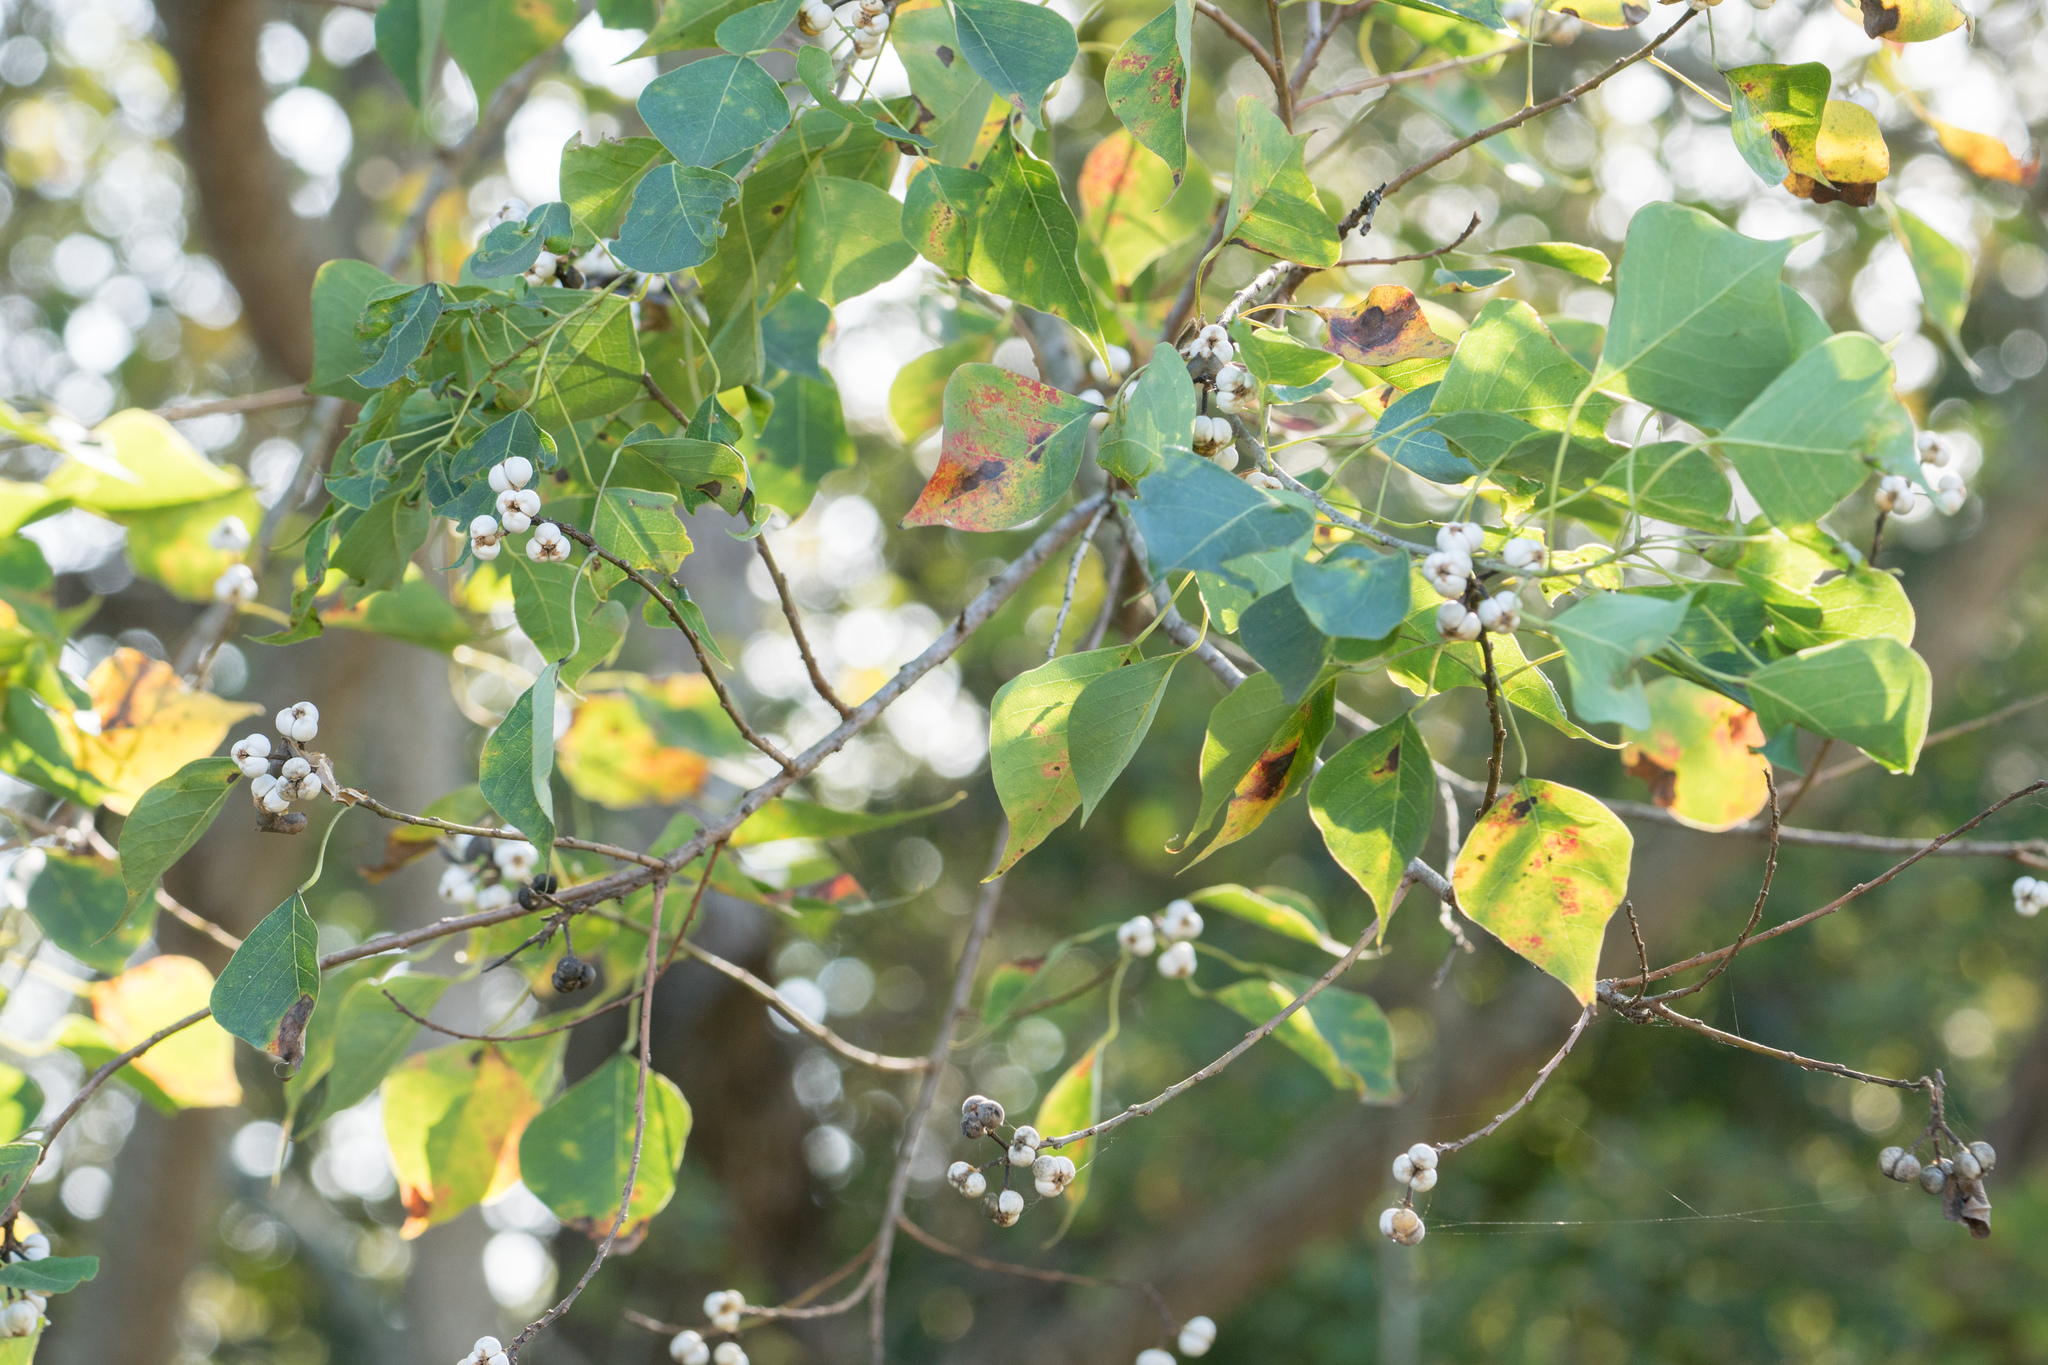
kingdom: Plantae
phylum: Tracheophyta
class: Magnoliopsida
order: Malpighiales
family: Euphorbiaceae
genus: Triadica
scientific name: Triadica sebifera
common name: Chinese tallow
